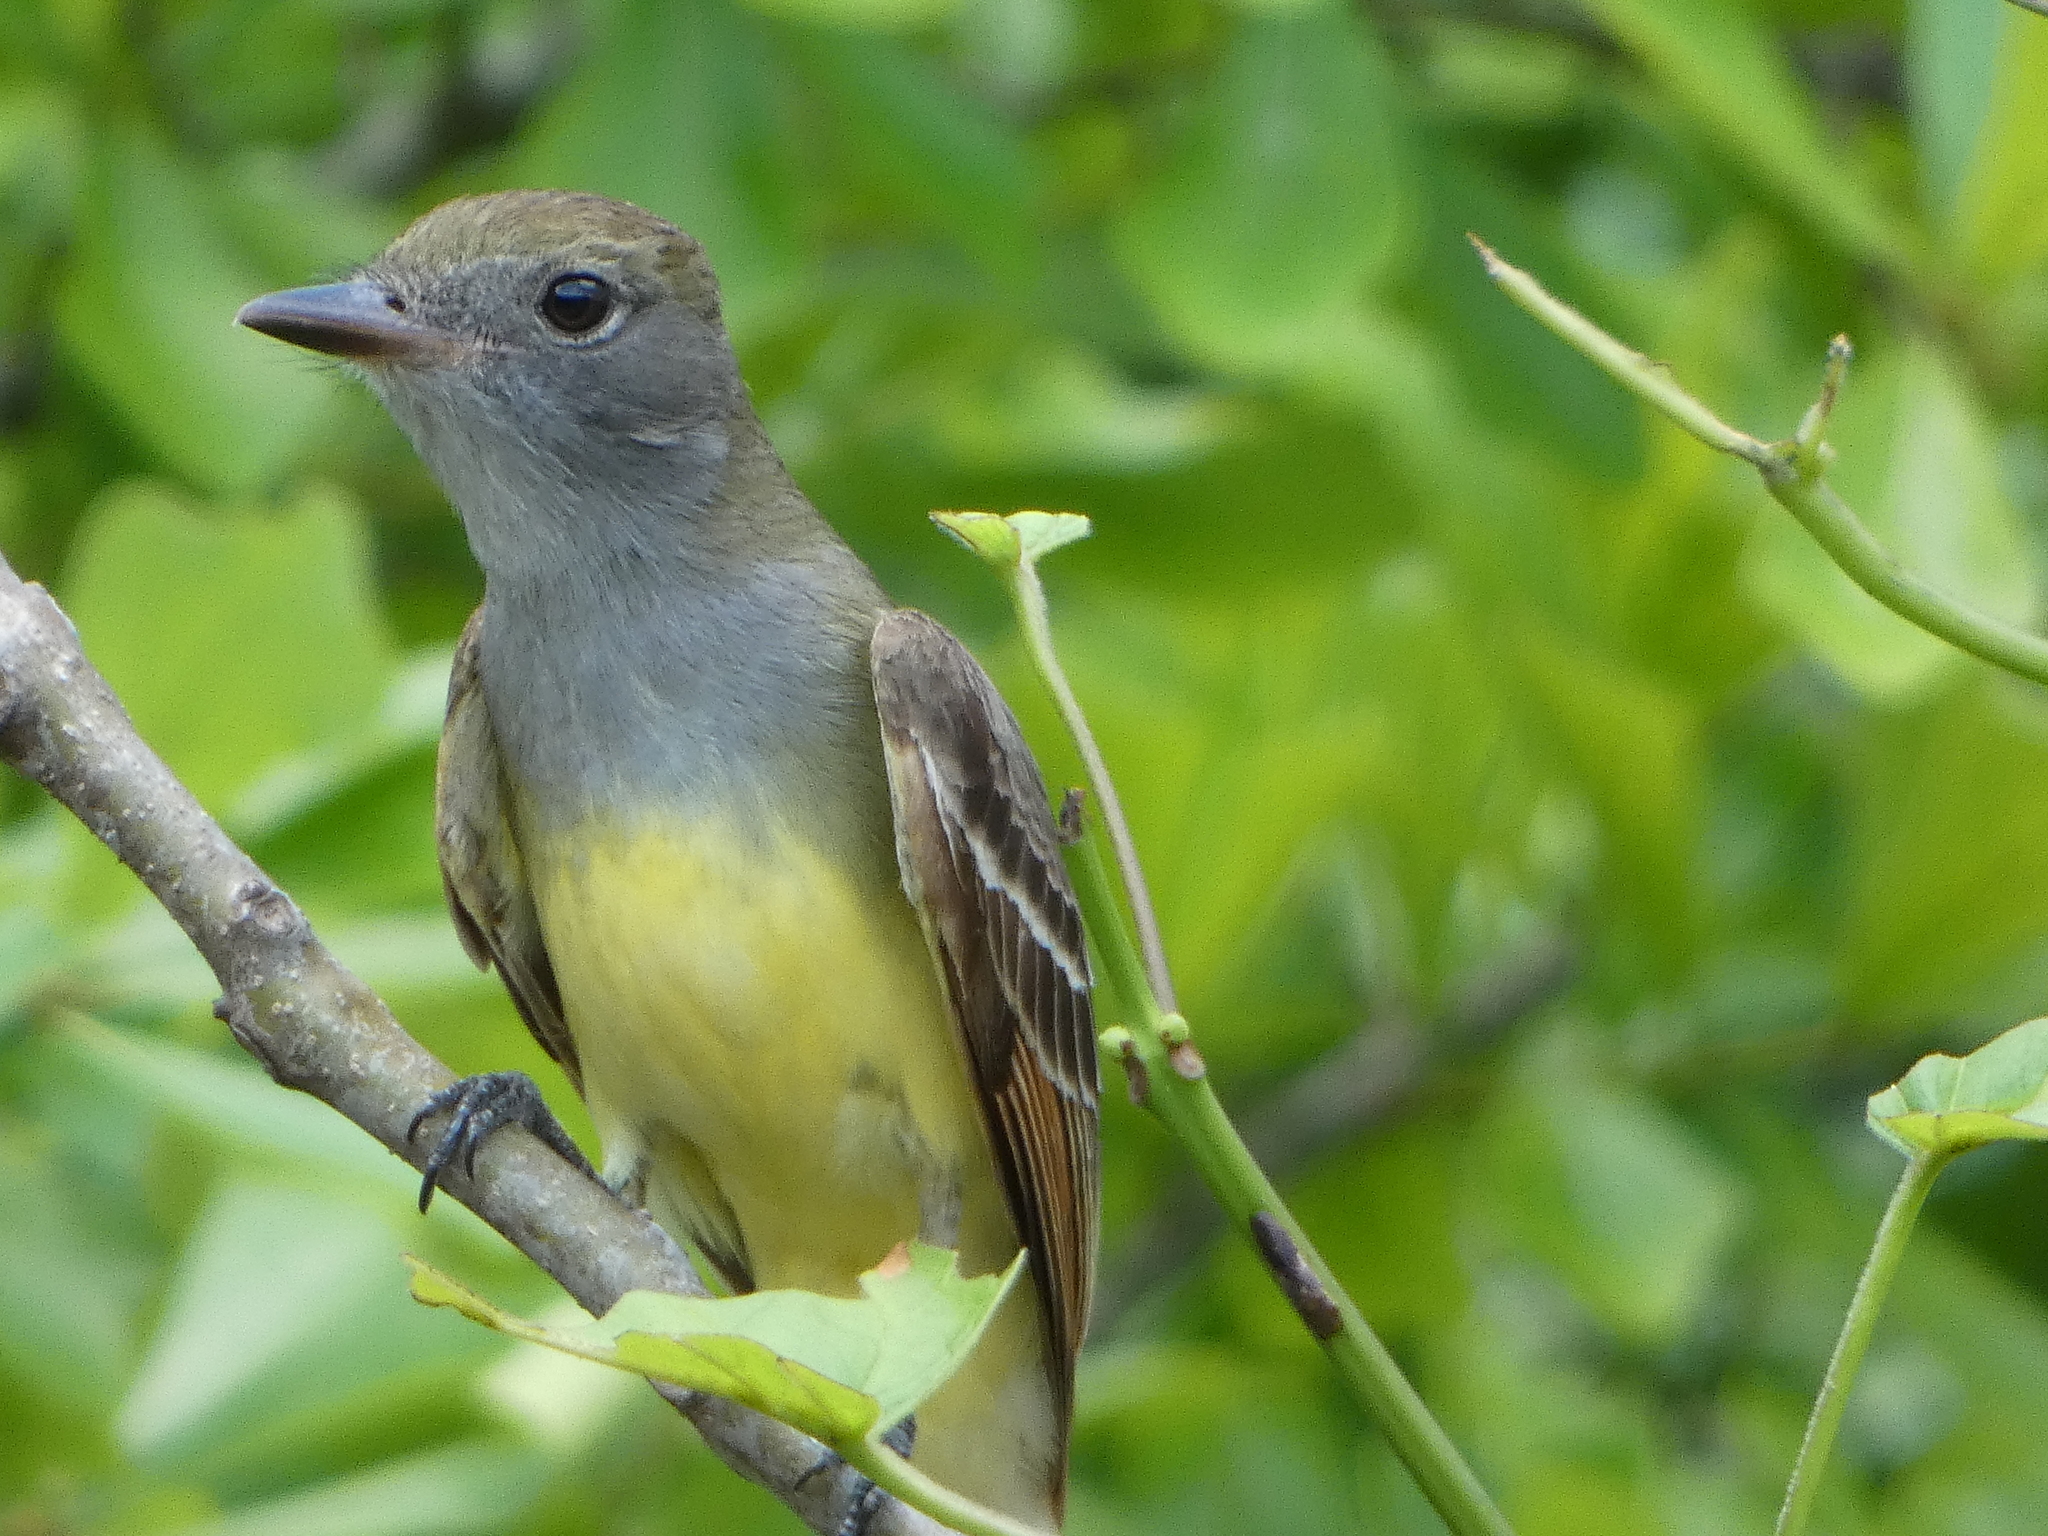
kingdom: Animalia
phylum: Chordata
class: Aves
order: Passeriformes
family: Tyrannidae
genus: Myiarchus
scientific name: Myiarchus crinitus
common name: Great crested flycatcher
